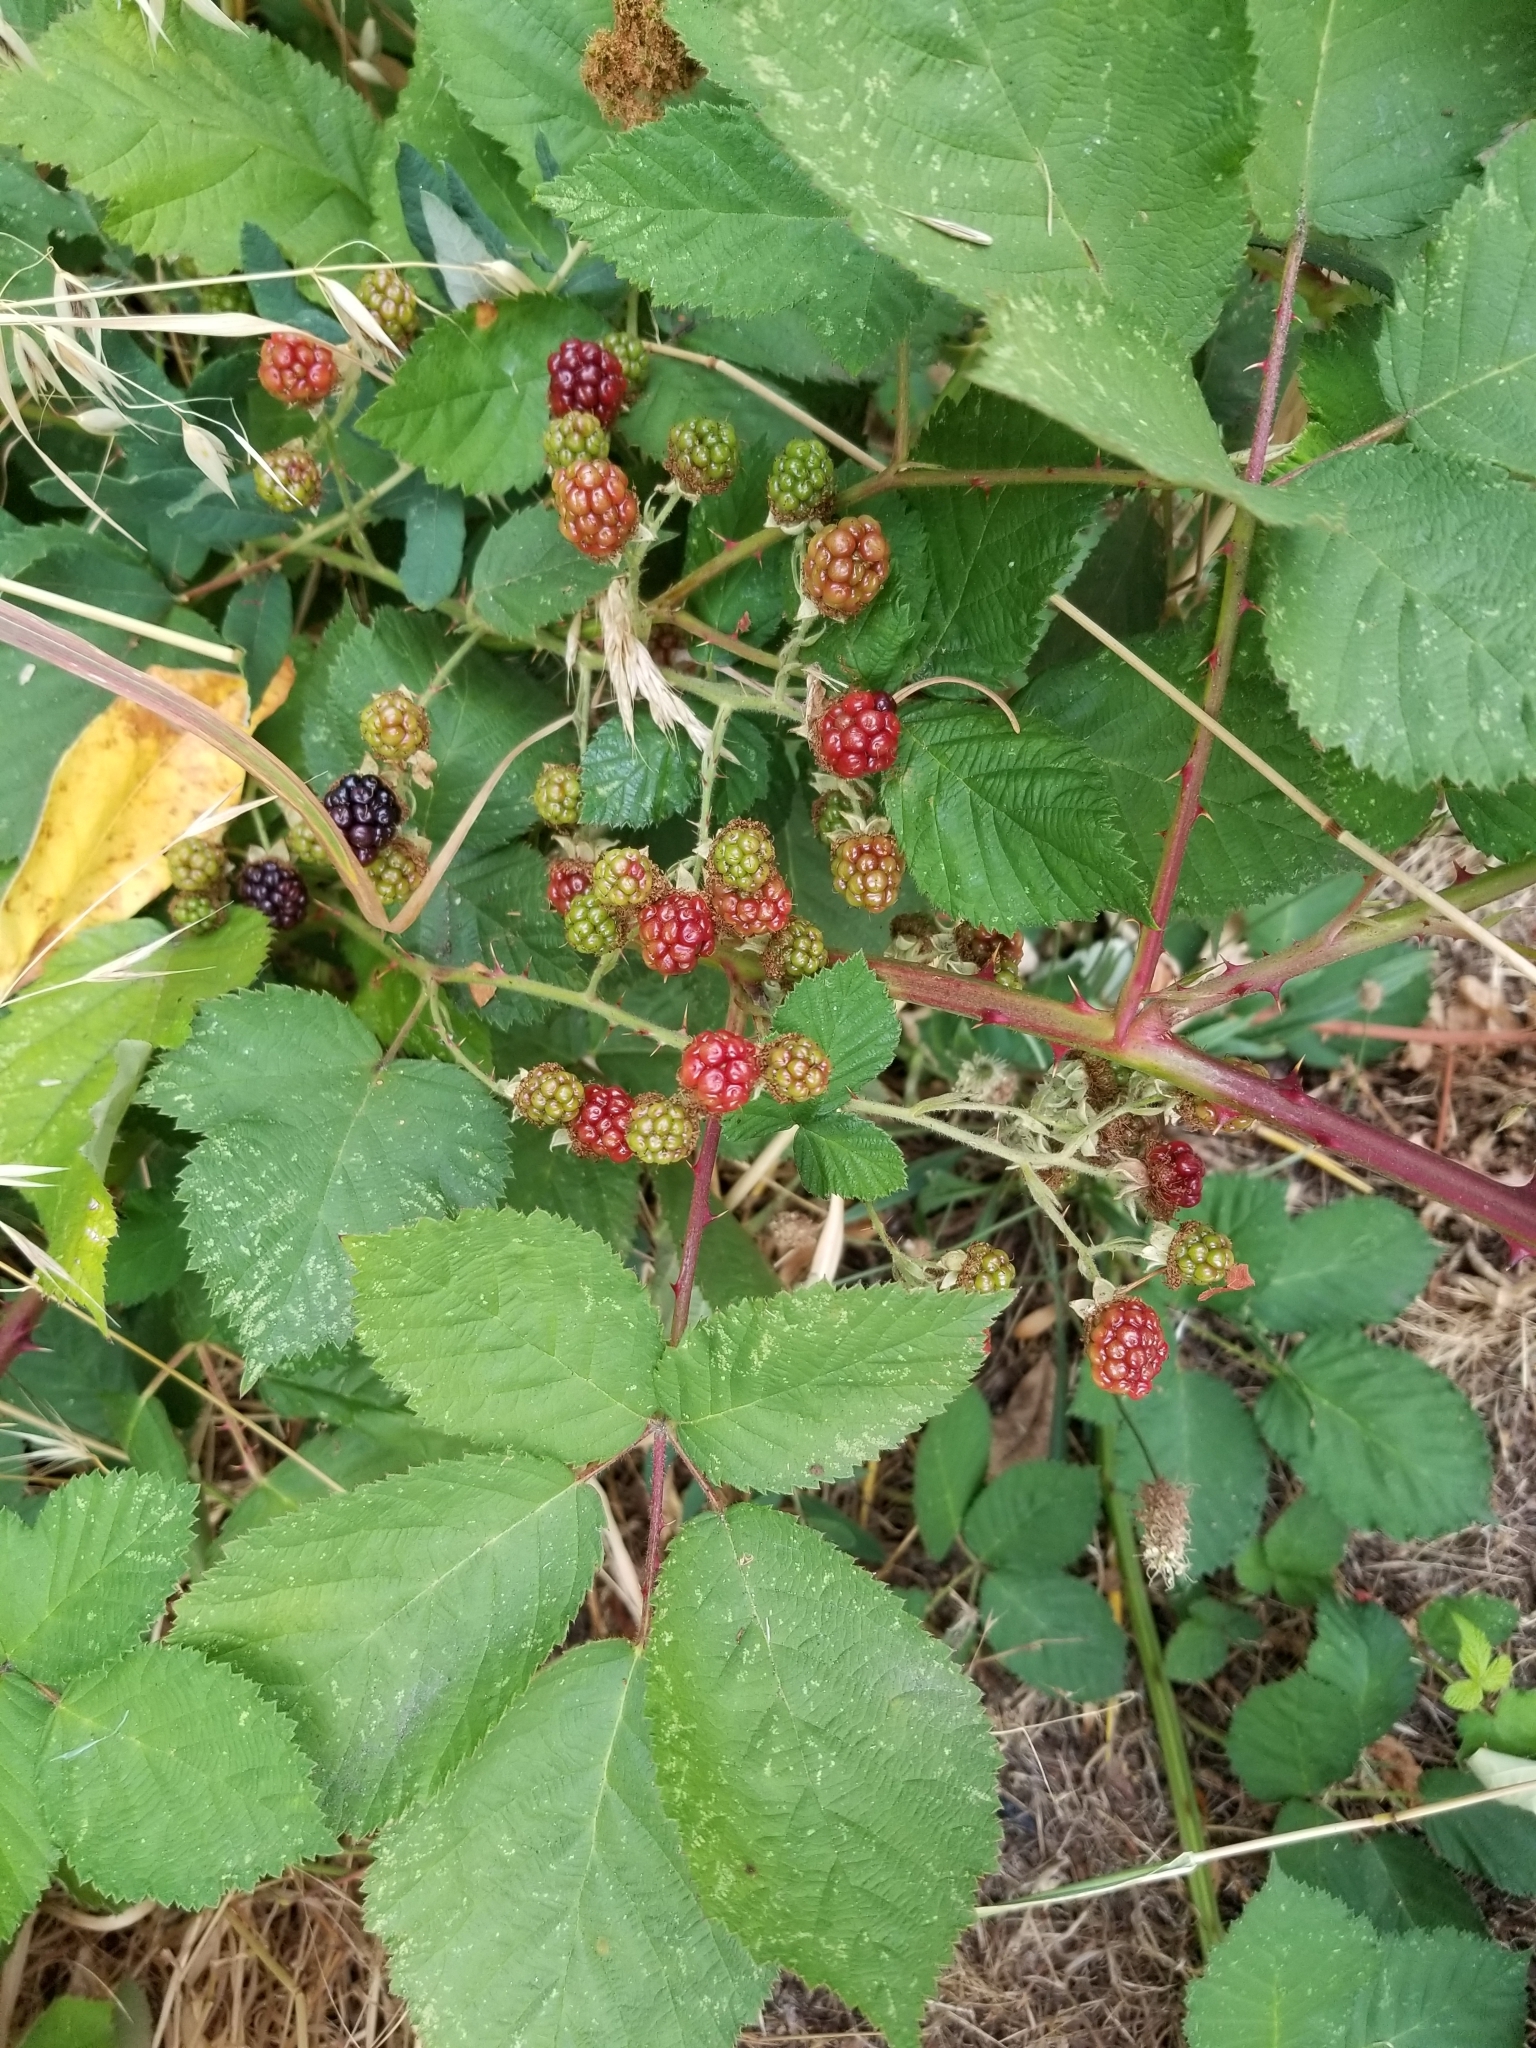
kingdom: Plantae
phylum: Tracheophyta
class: Magnoliopsida
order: Rosales
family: Rosaceae
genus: Rubus
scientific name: Rubus armeniacus
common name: Himalayan blackberry
